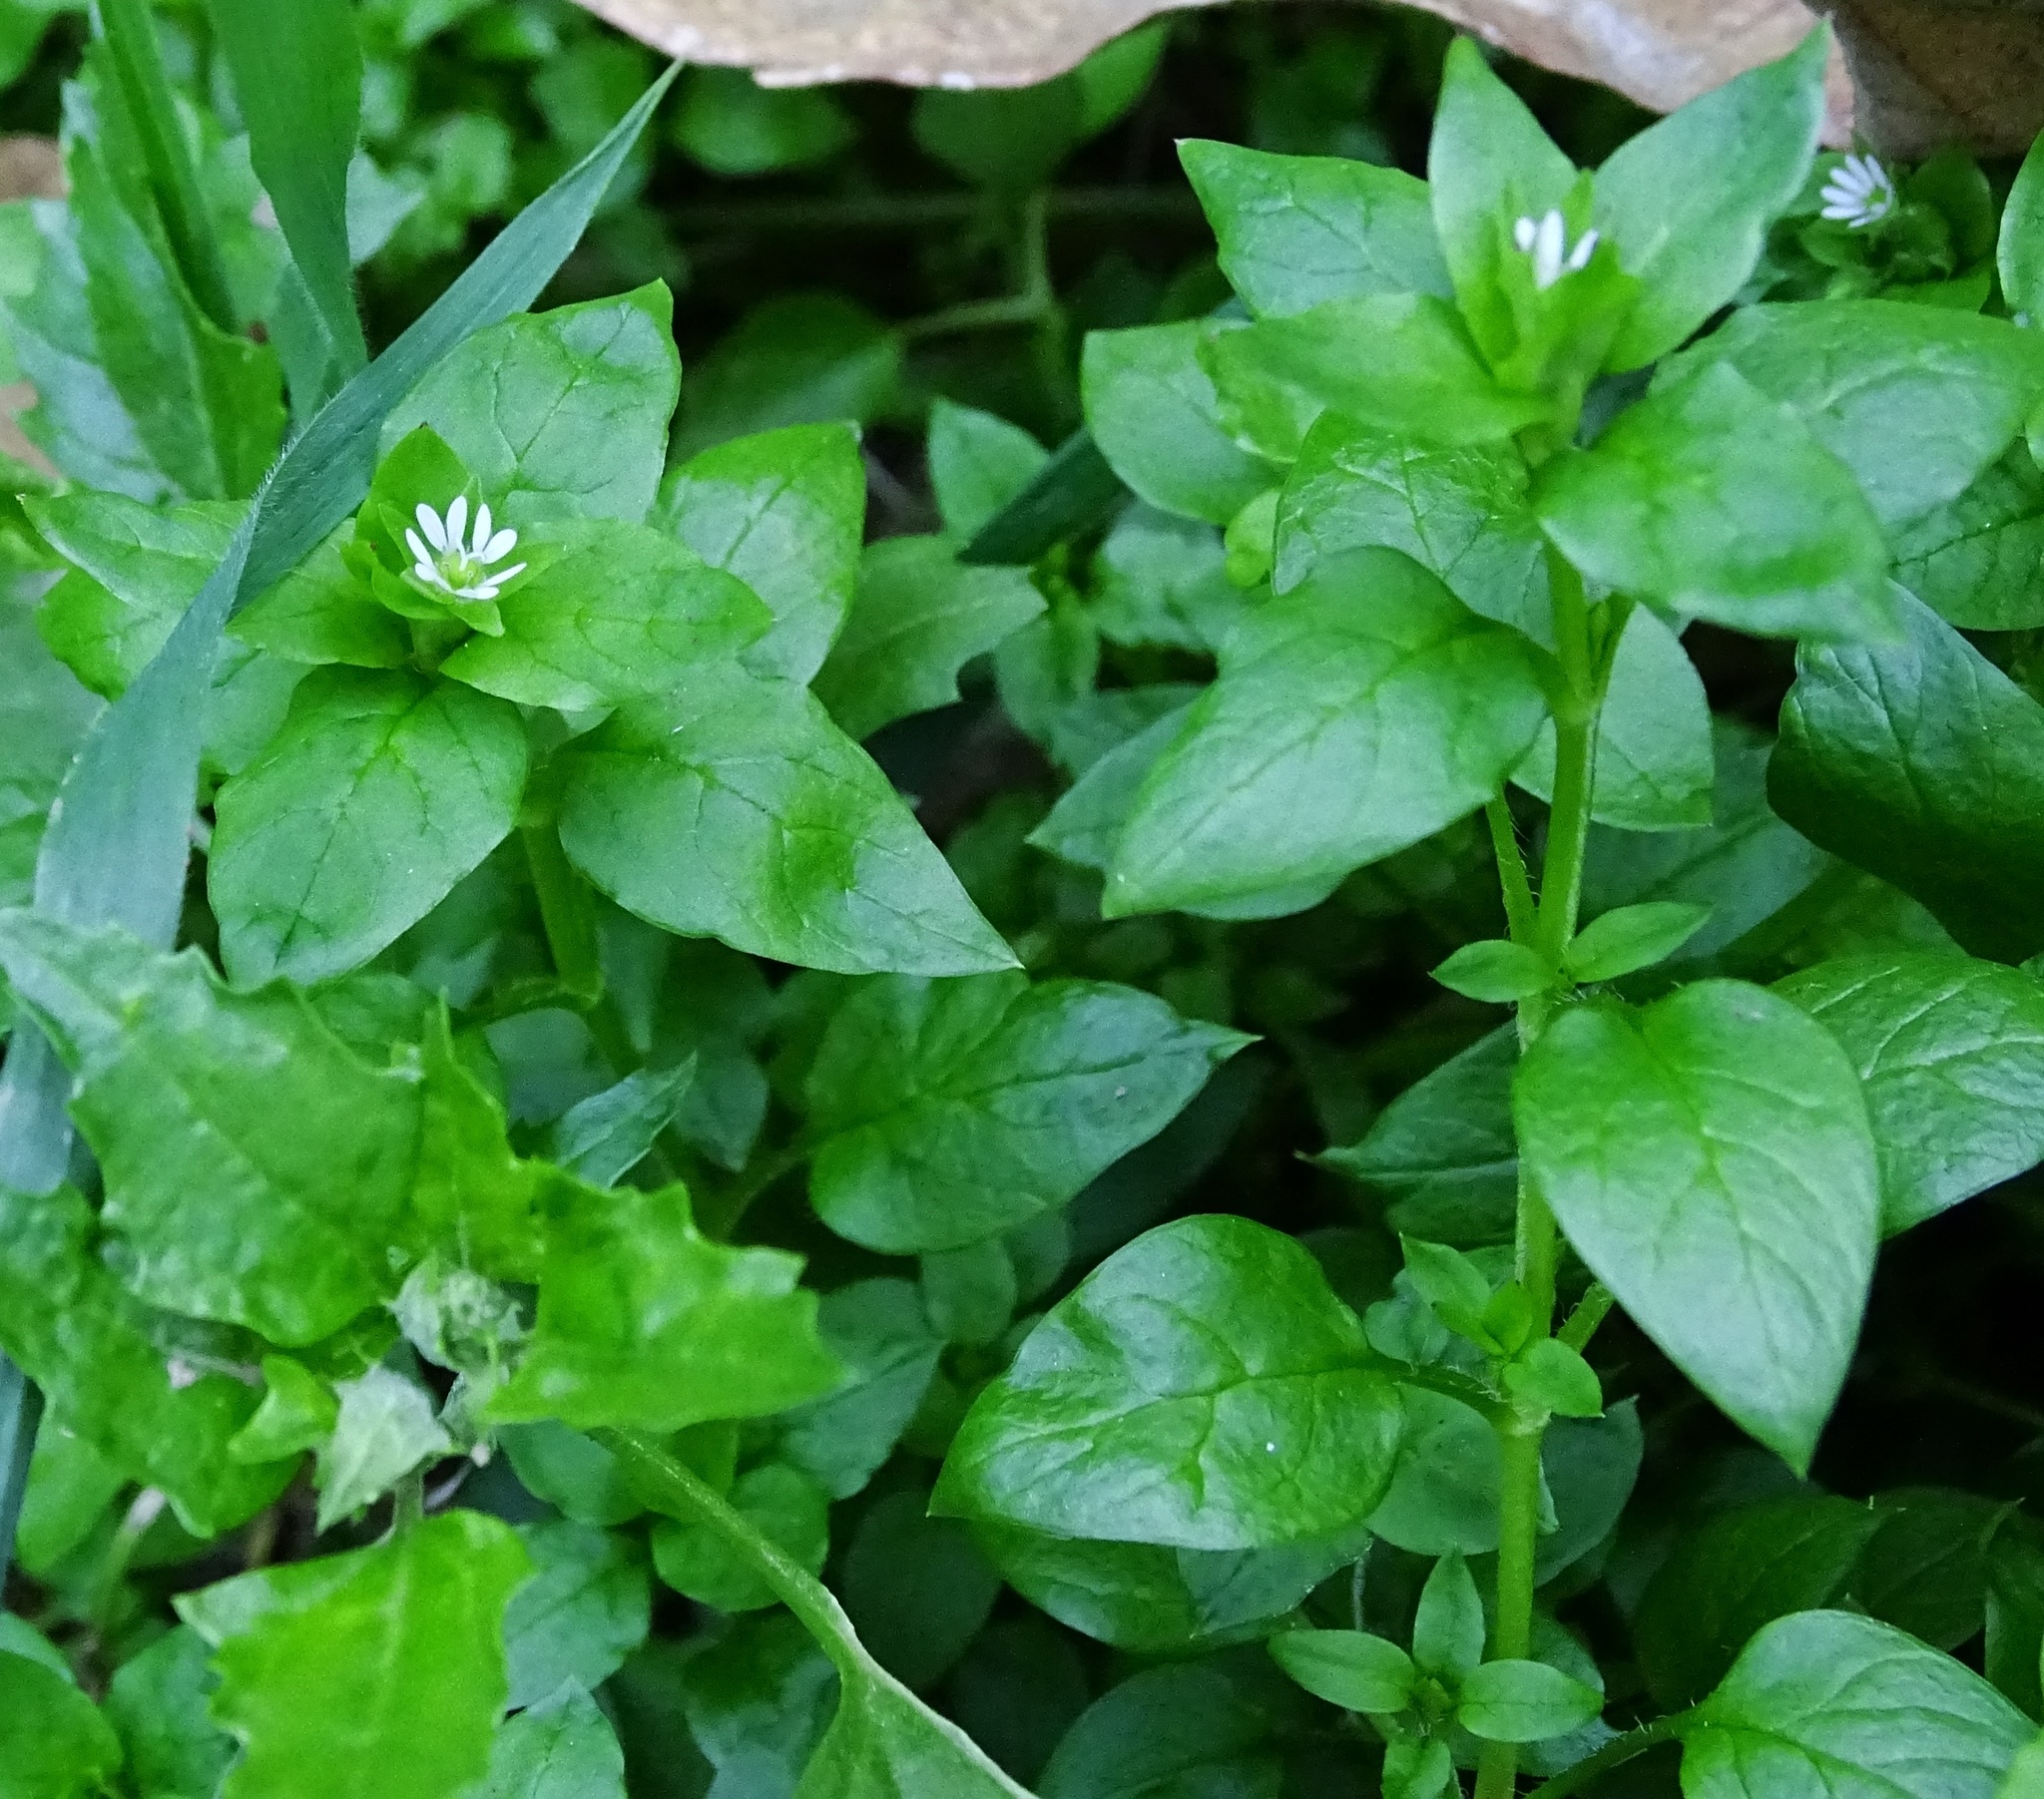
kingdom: Plantae
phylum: Tracheophyta
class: Magnoliopsida
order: Caryophyllales
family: Caryophyllaceae
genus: Stellaria
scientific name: Stellaria media
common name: Common chickweed
